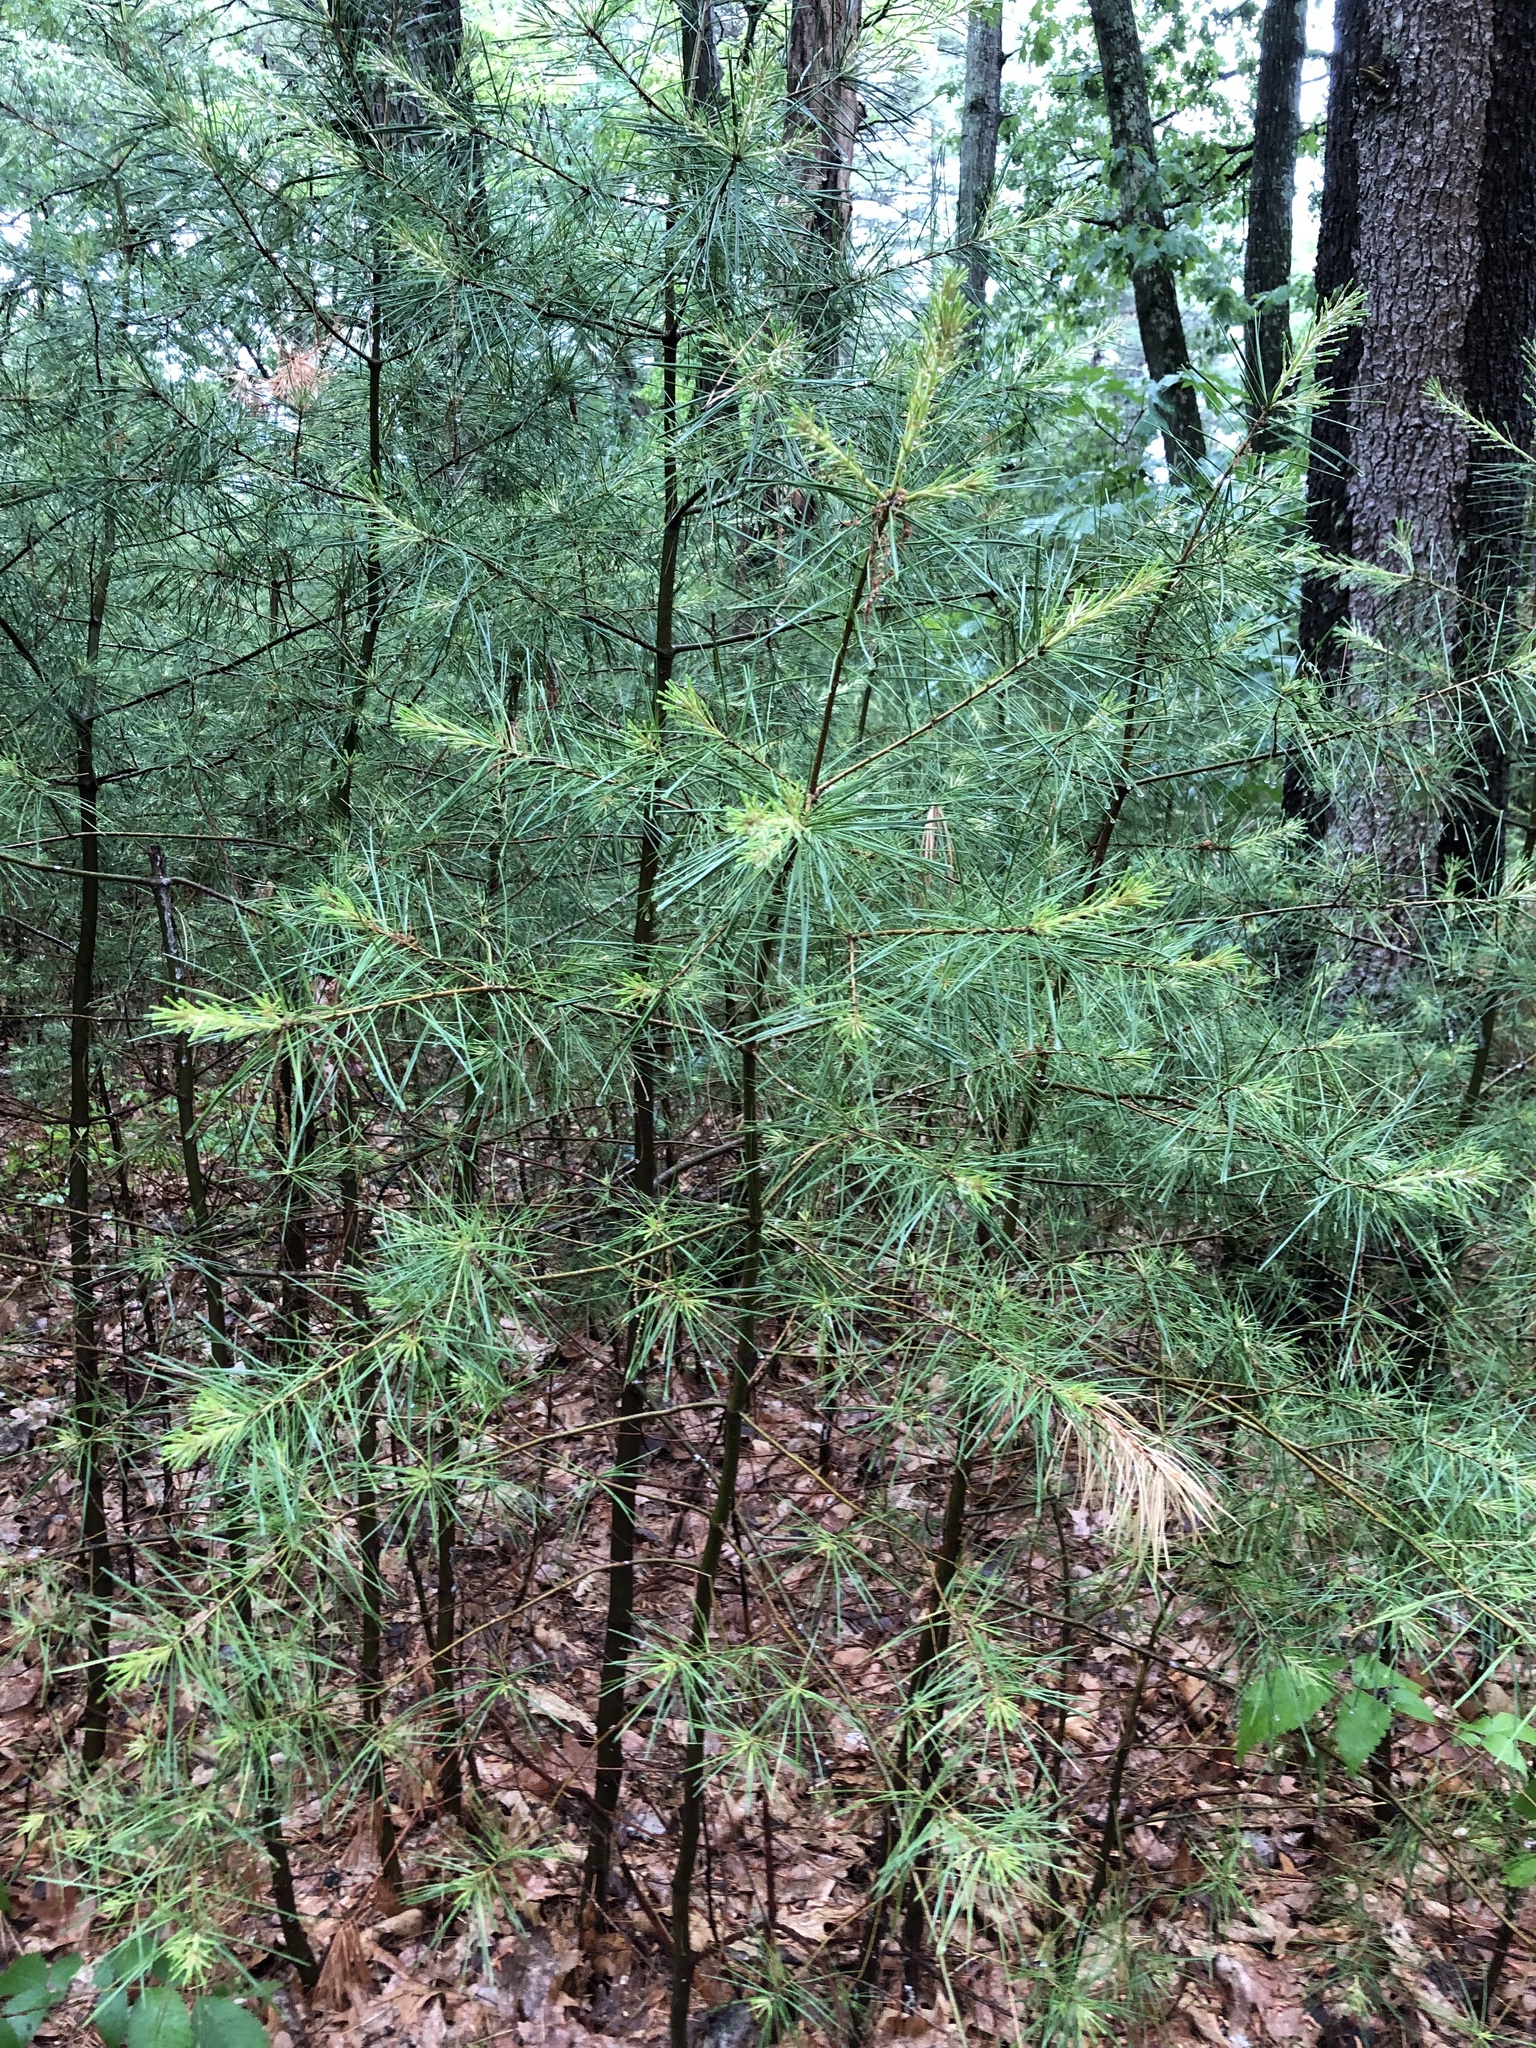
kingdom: Plantae
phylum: Tracheophyta
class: Pinopsida
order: Pinales
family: Pinaceae
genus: Pinus
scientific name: Pinus strobus
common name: Weymouth pine
